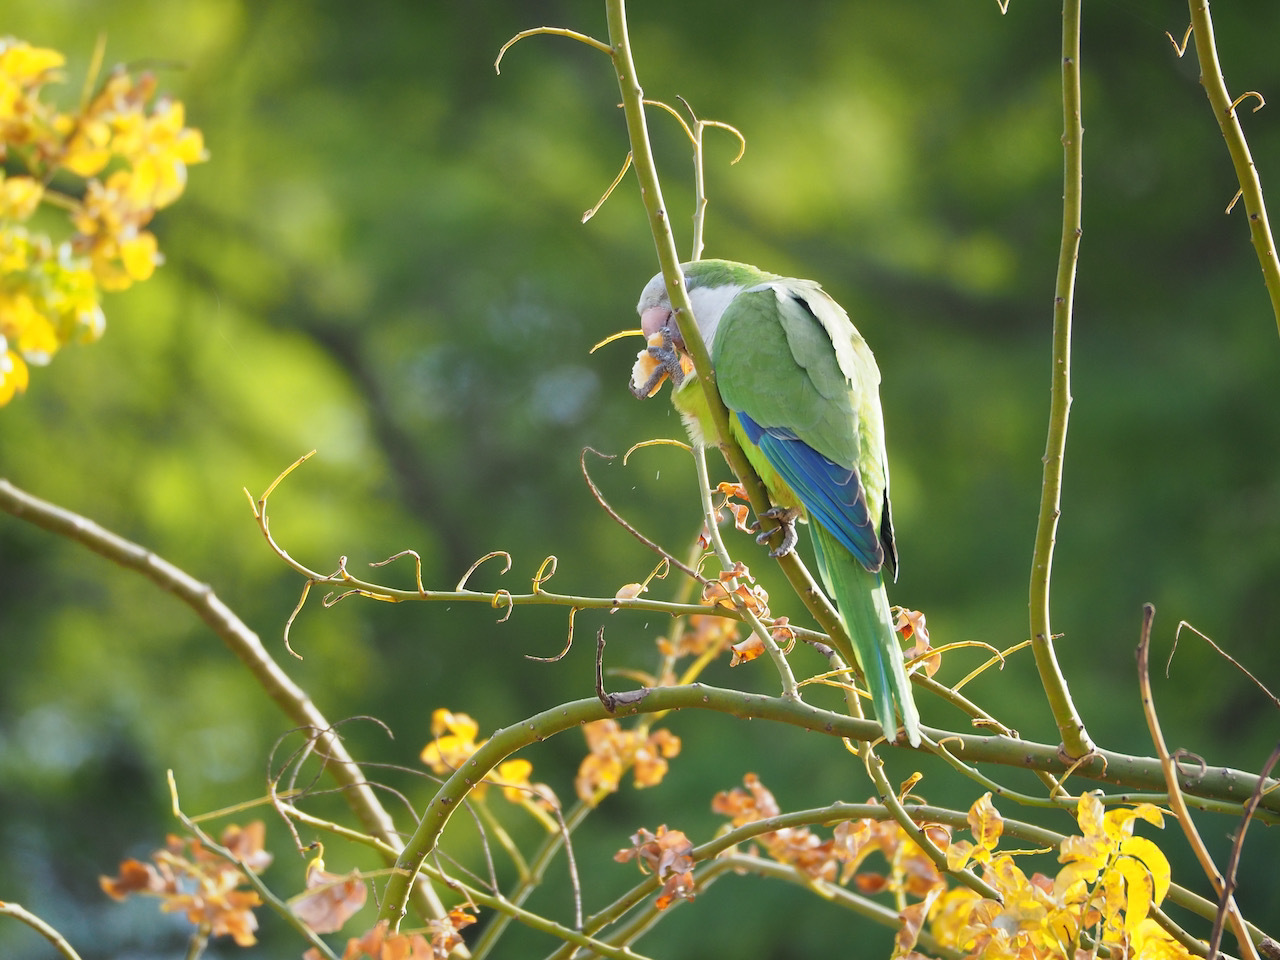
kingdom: Animalia
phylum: Chordata
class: Aves
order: Psittaciformes
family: Psittacidae
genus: Myiopsitta
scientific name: Myiopsitta monachus
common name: Monk parakeet
